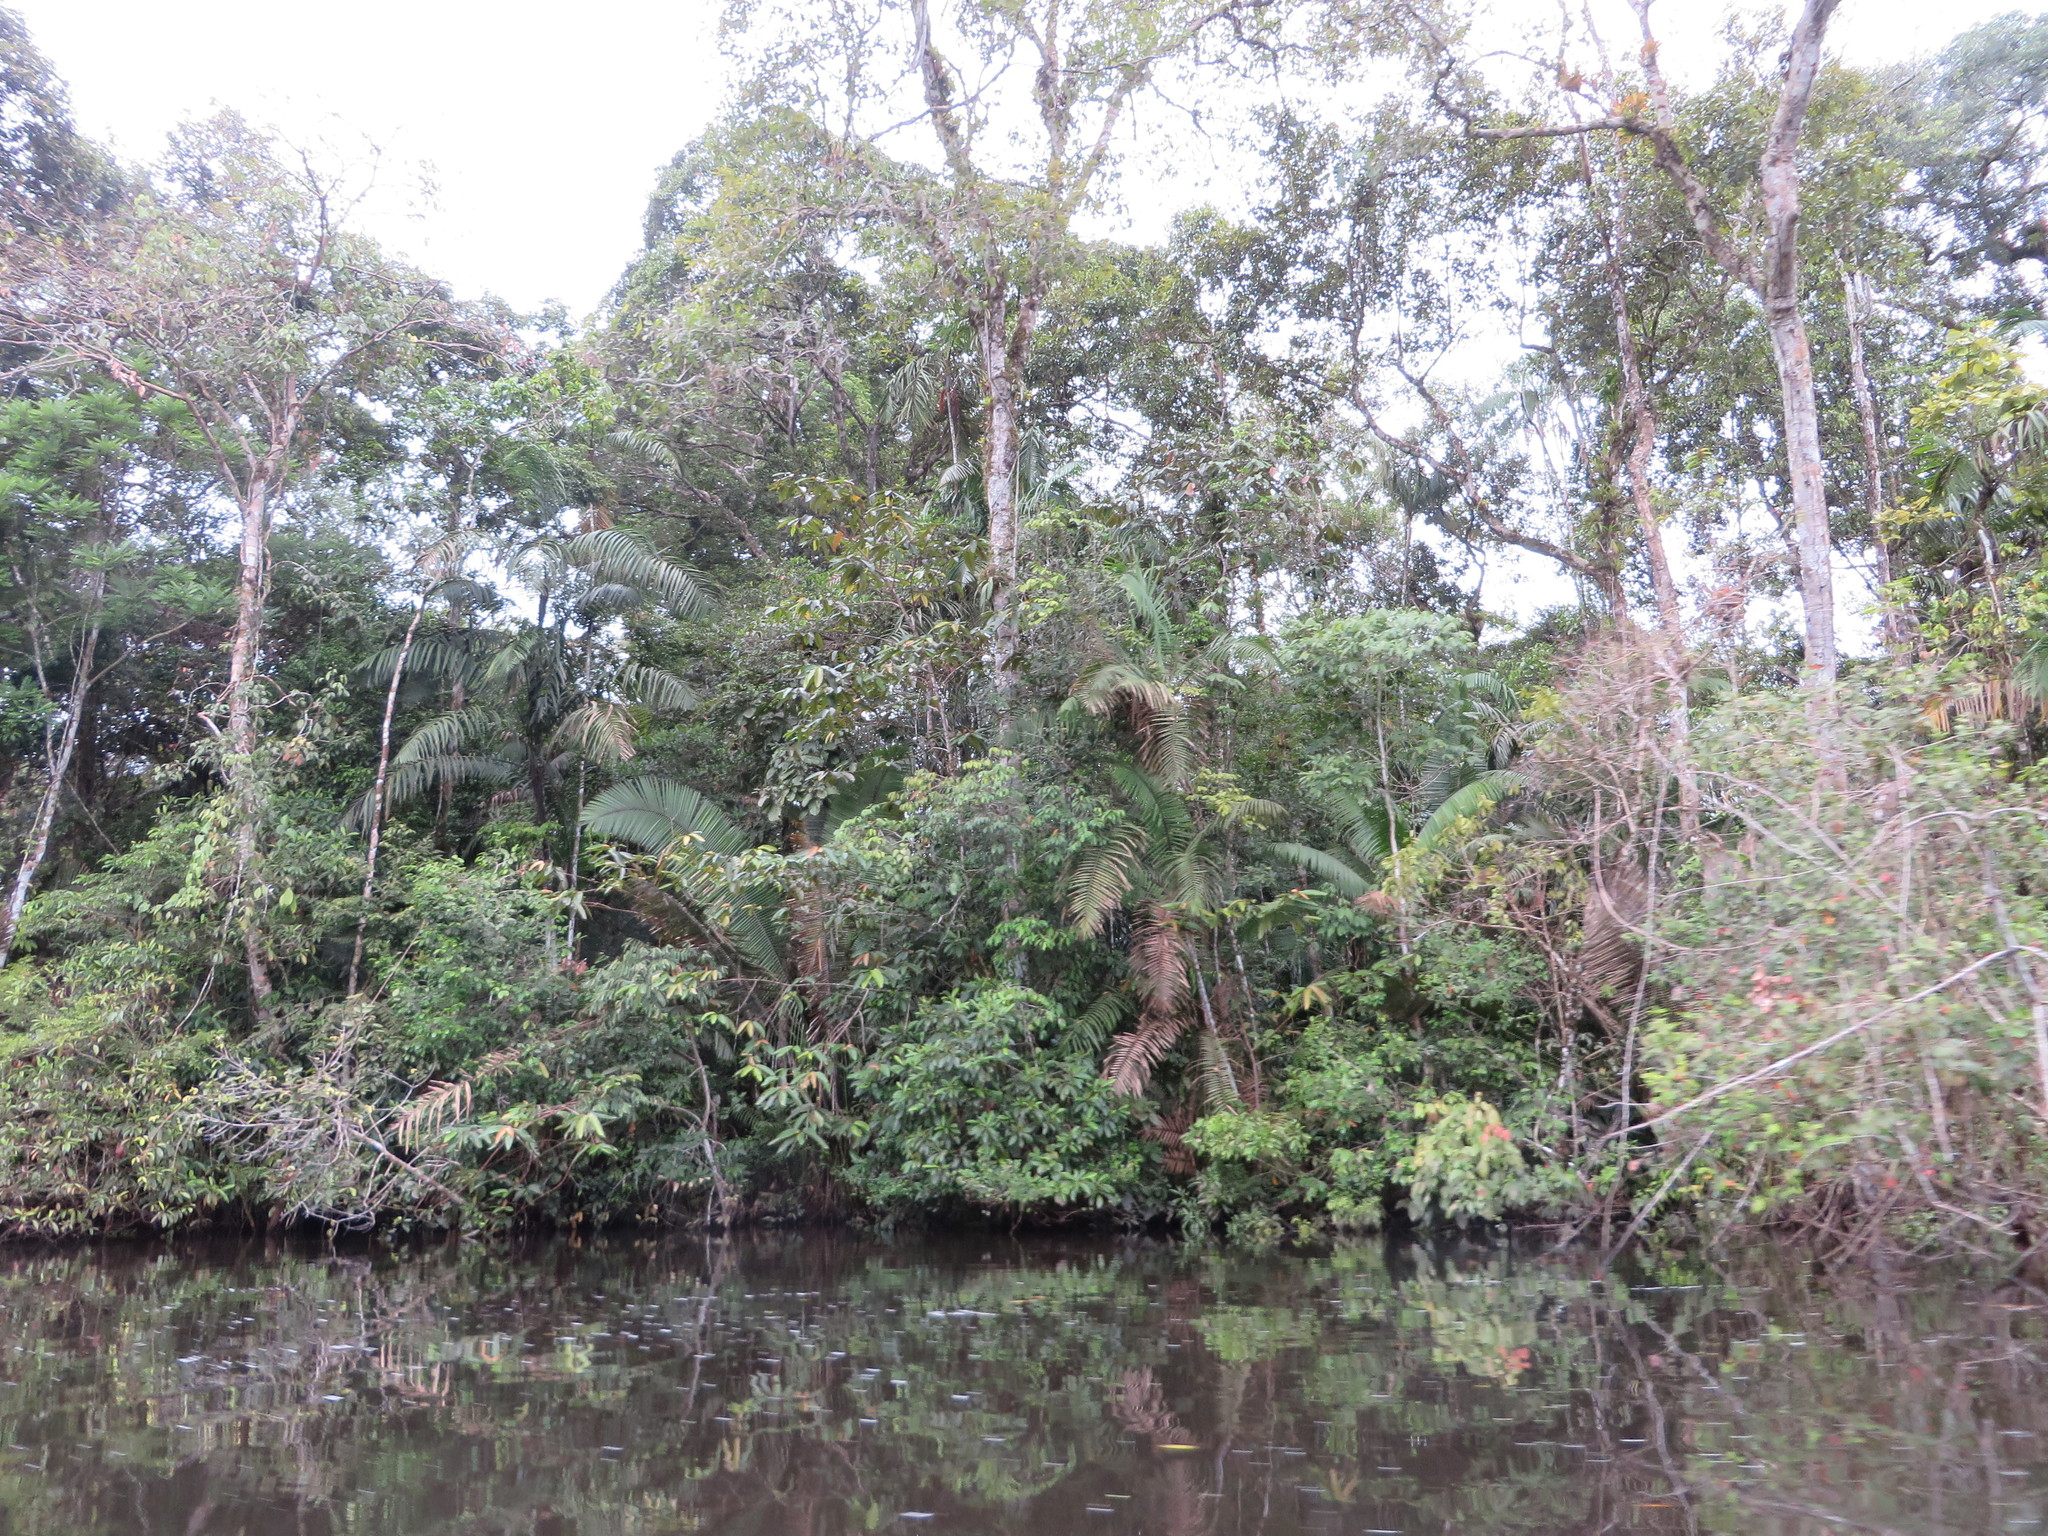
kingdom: Plantae
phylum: Tracheophyta
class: Liliopsida
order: Arecales
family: Arecaceae
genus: Oenocarpus
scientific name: Oenocarpus mapora
